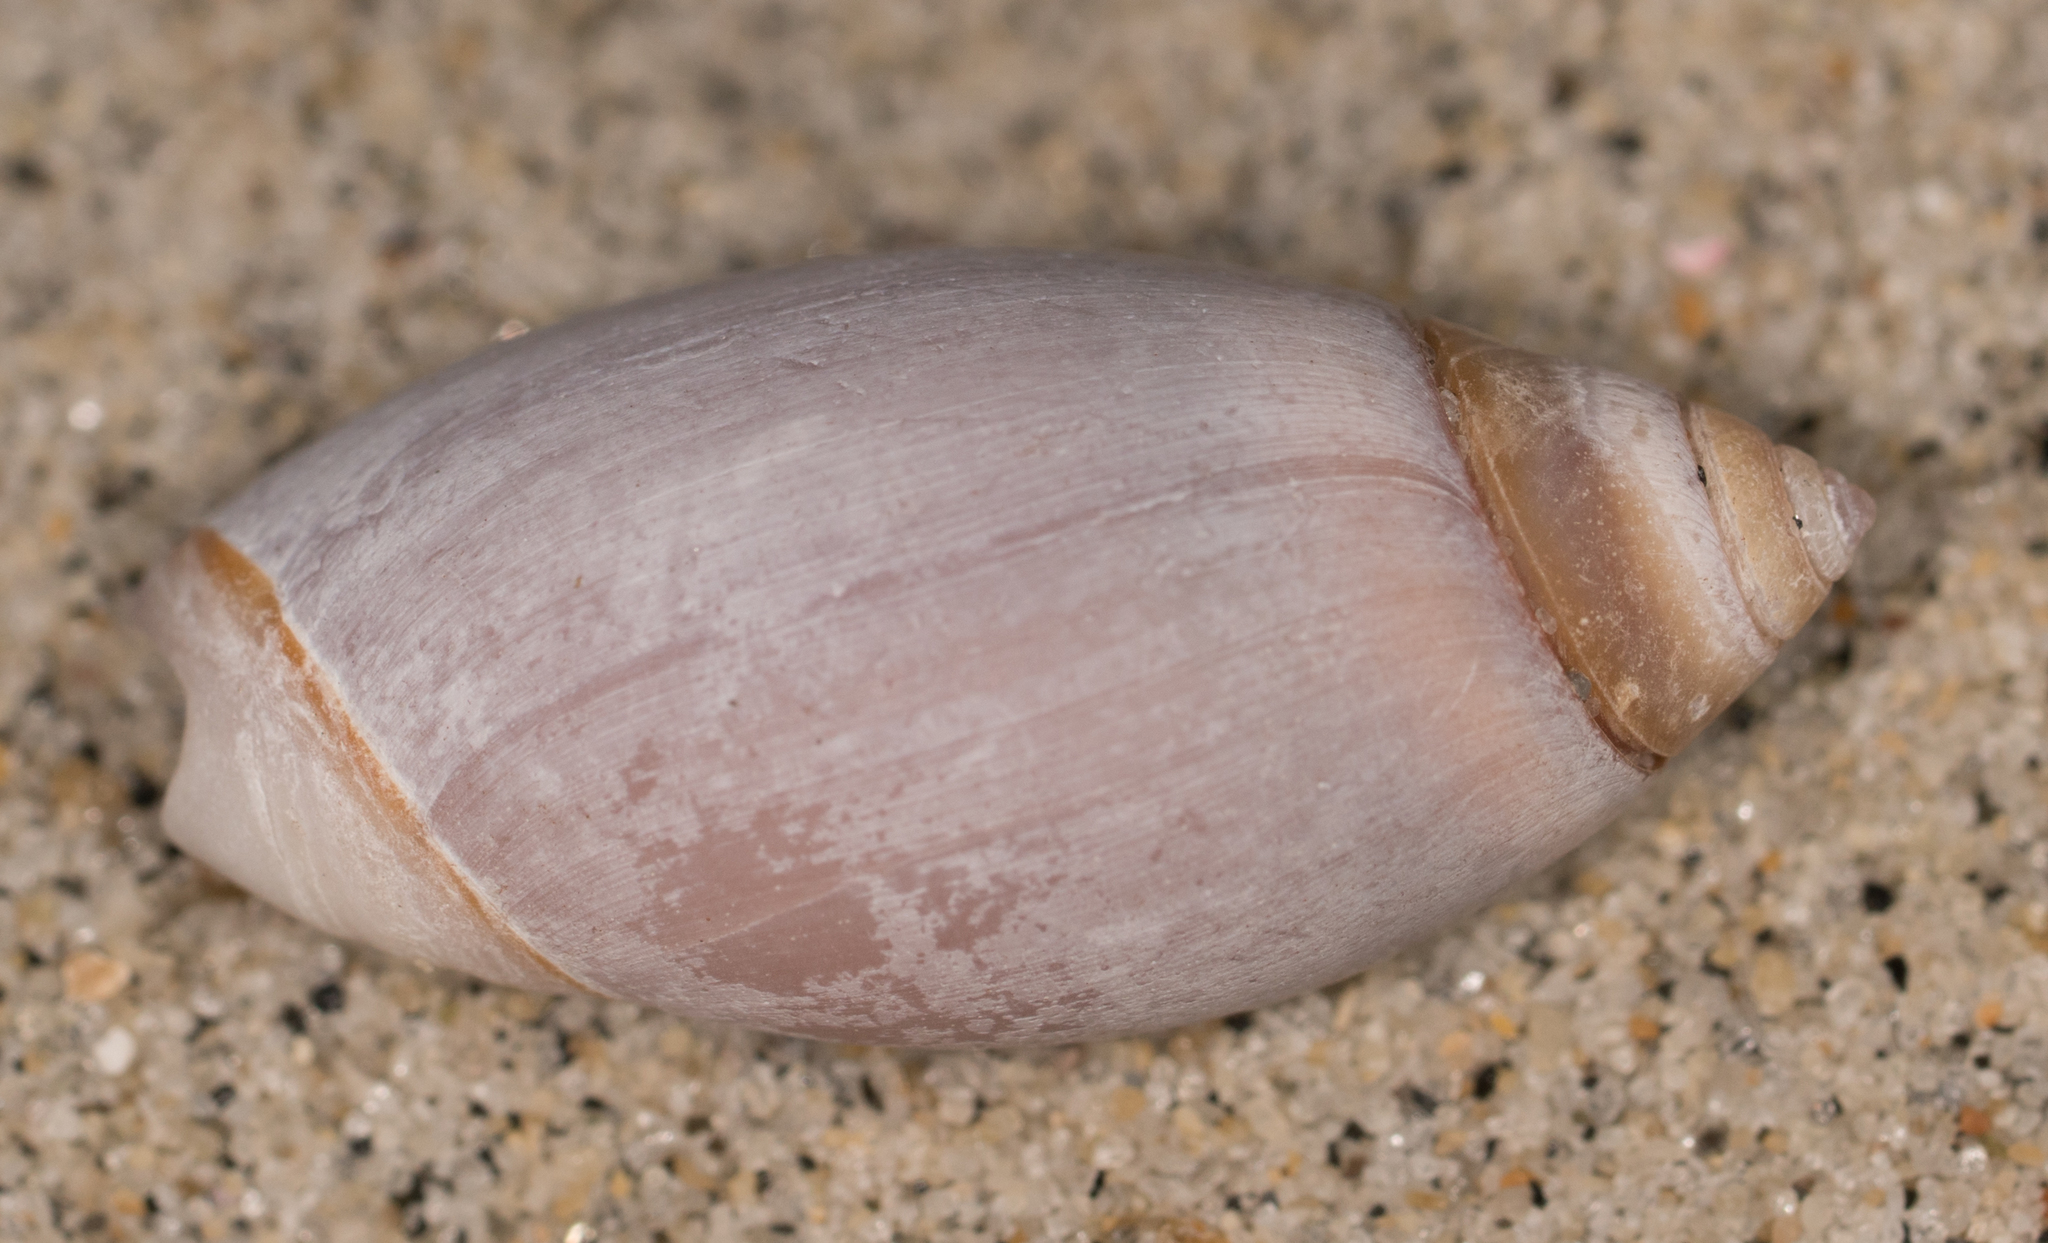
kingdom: Animalia
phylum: Mollusca
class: Gastropoda
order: Neogastropoda
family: Olividae
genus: Callianax
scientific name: Callianax biplicata
